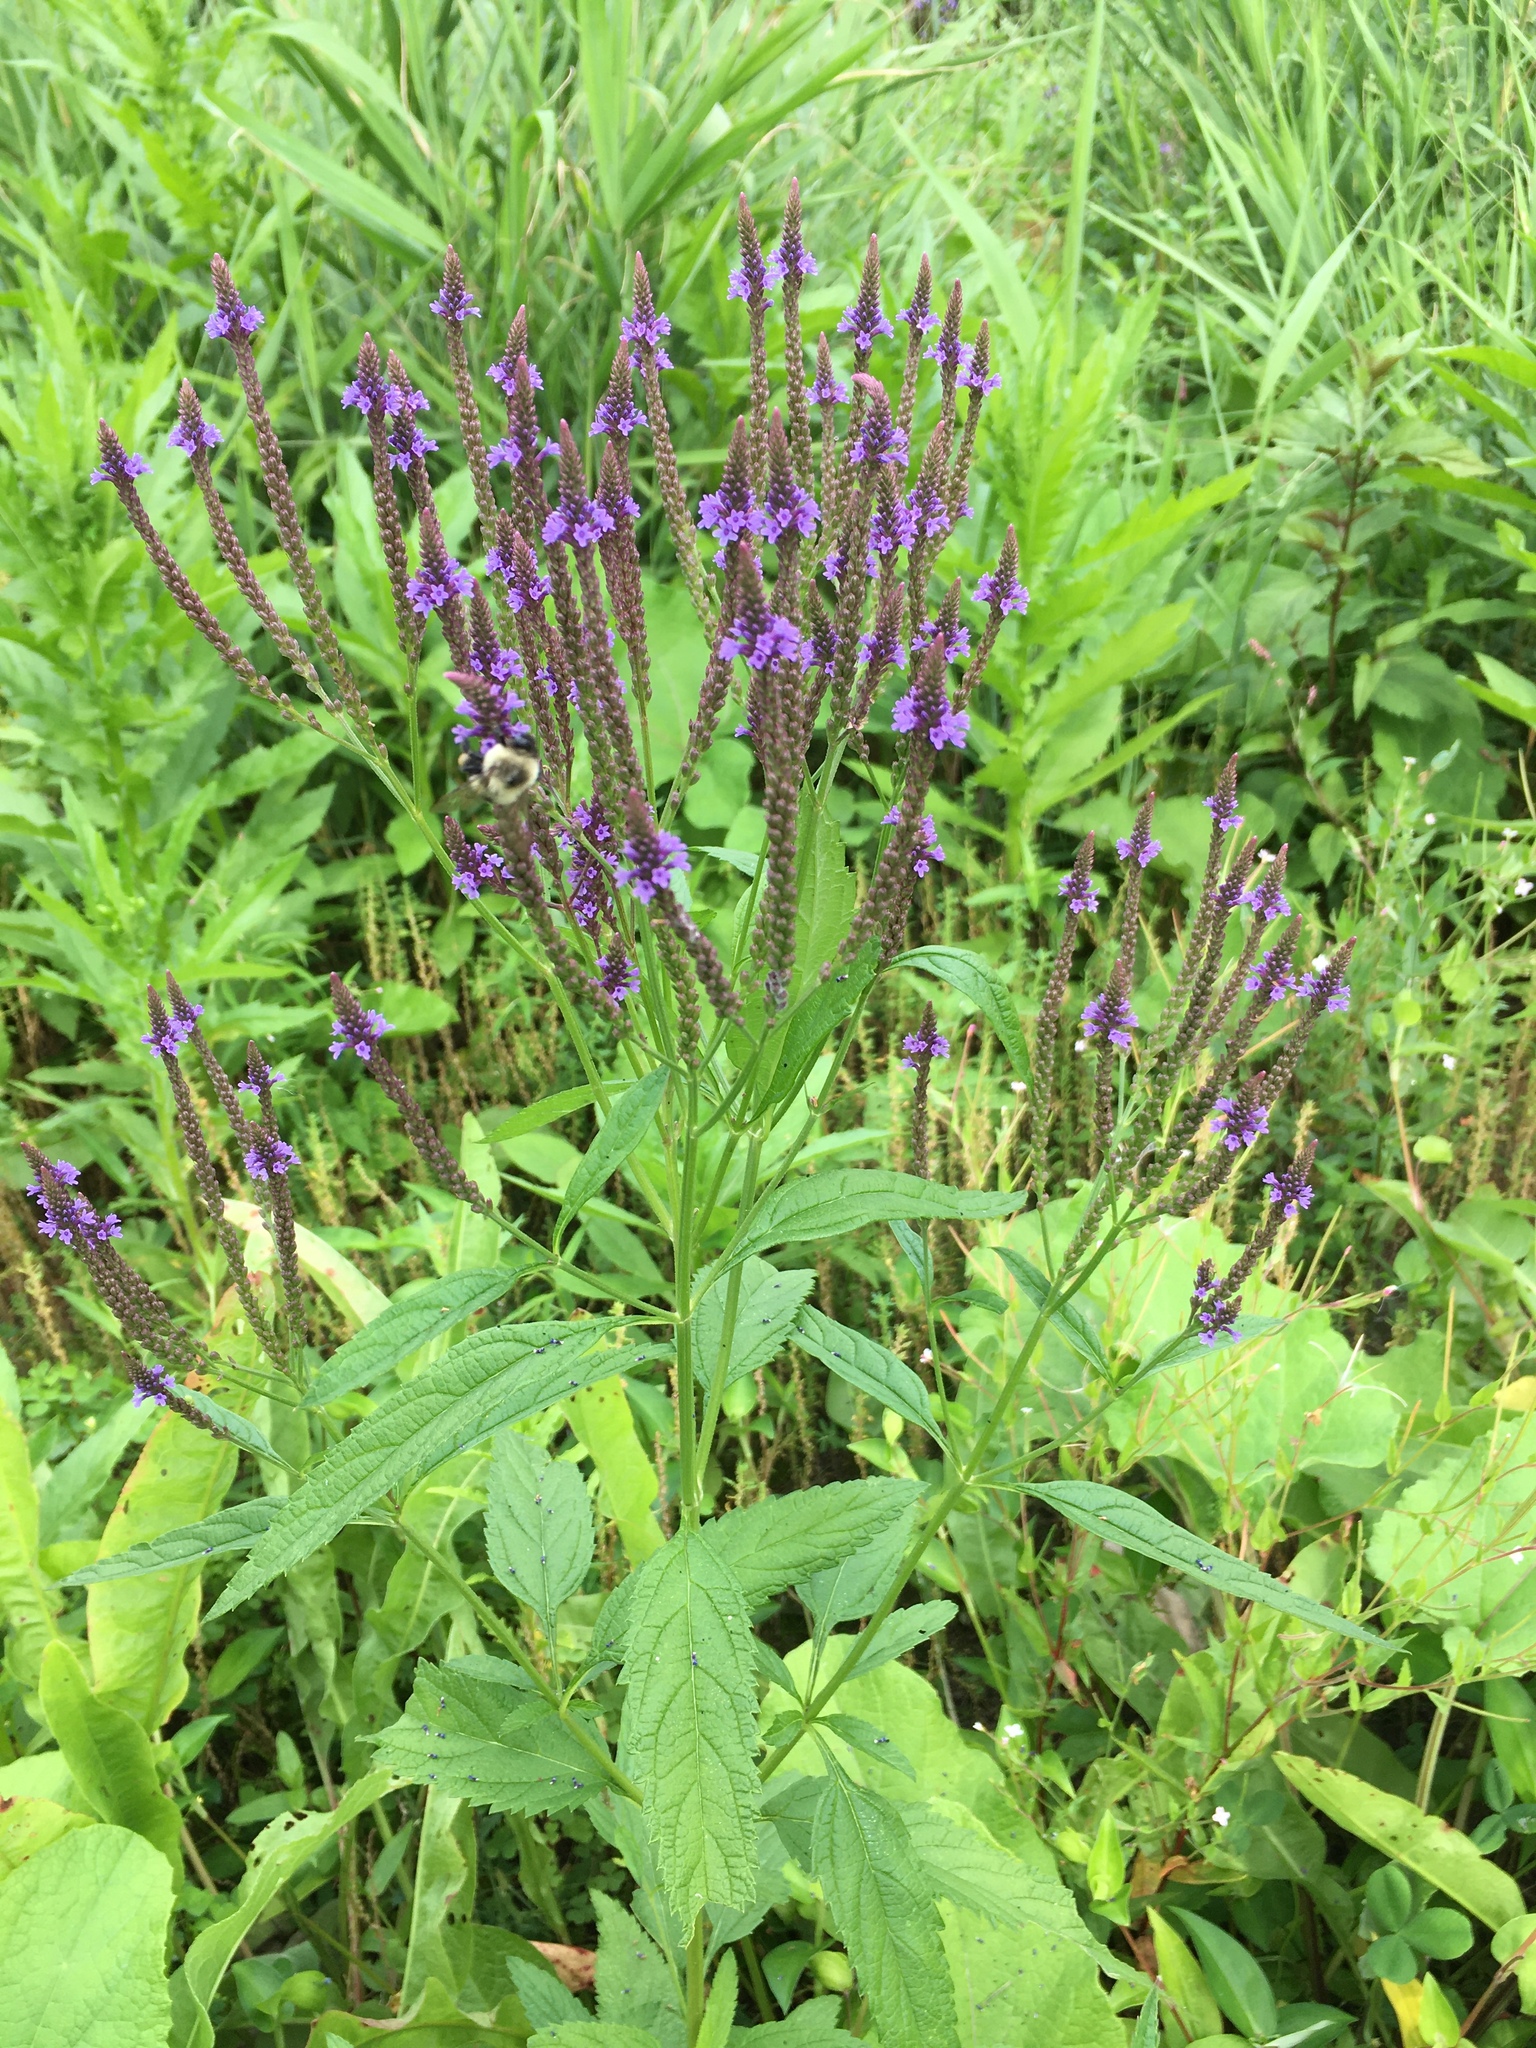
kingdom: Plantae
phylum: Tracheophyta
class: Magnoliopsida
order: Lamiales
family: Verbenaceae
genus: Verbena
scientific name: Verbena hastata
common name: American blue vervain
